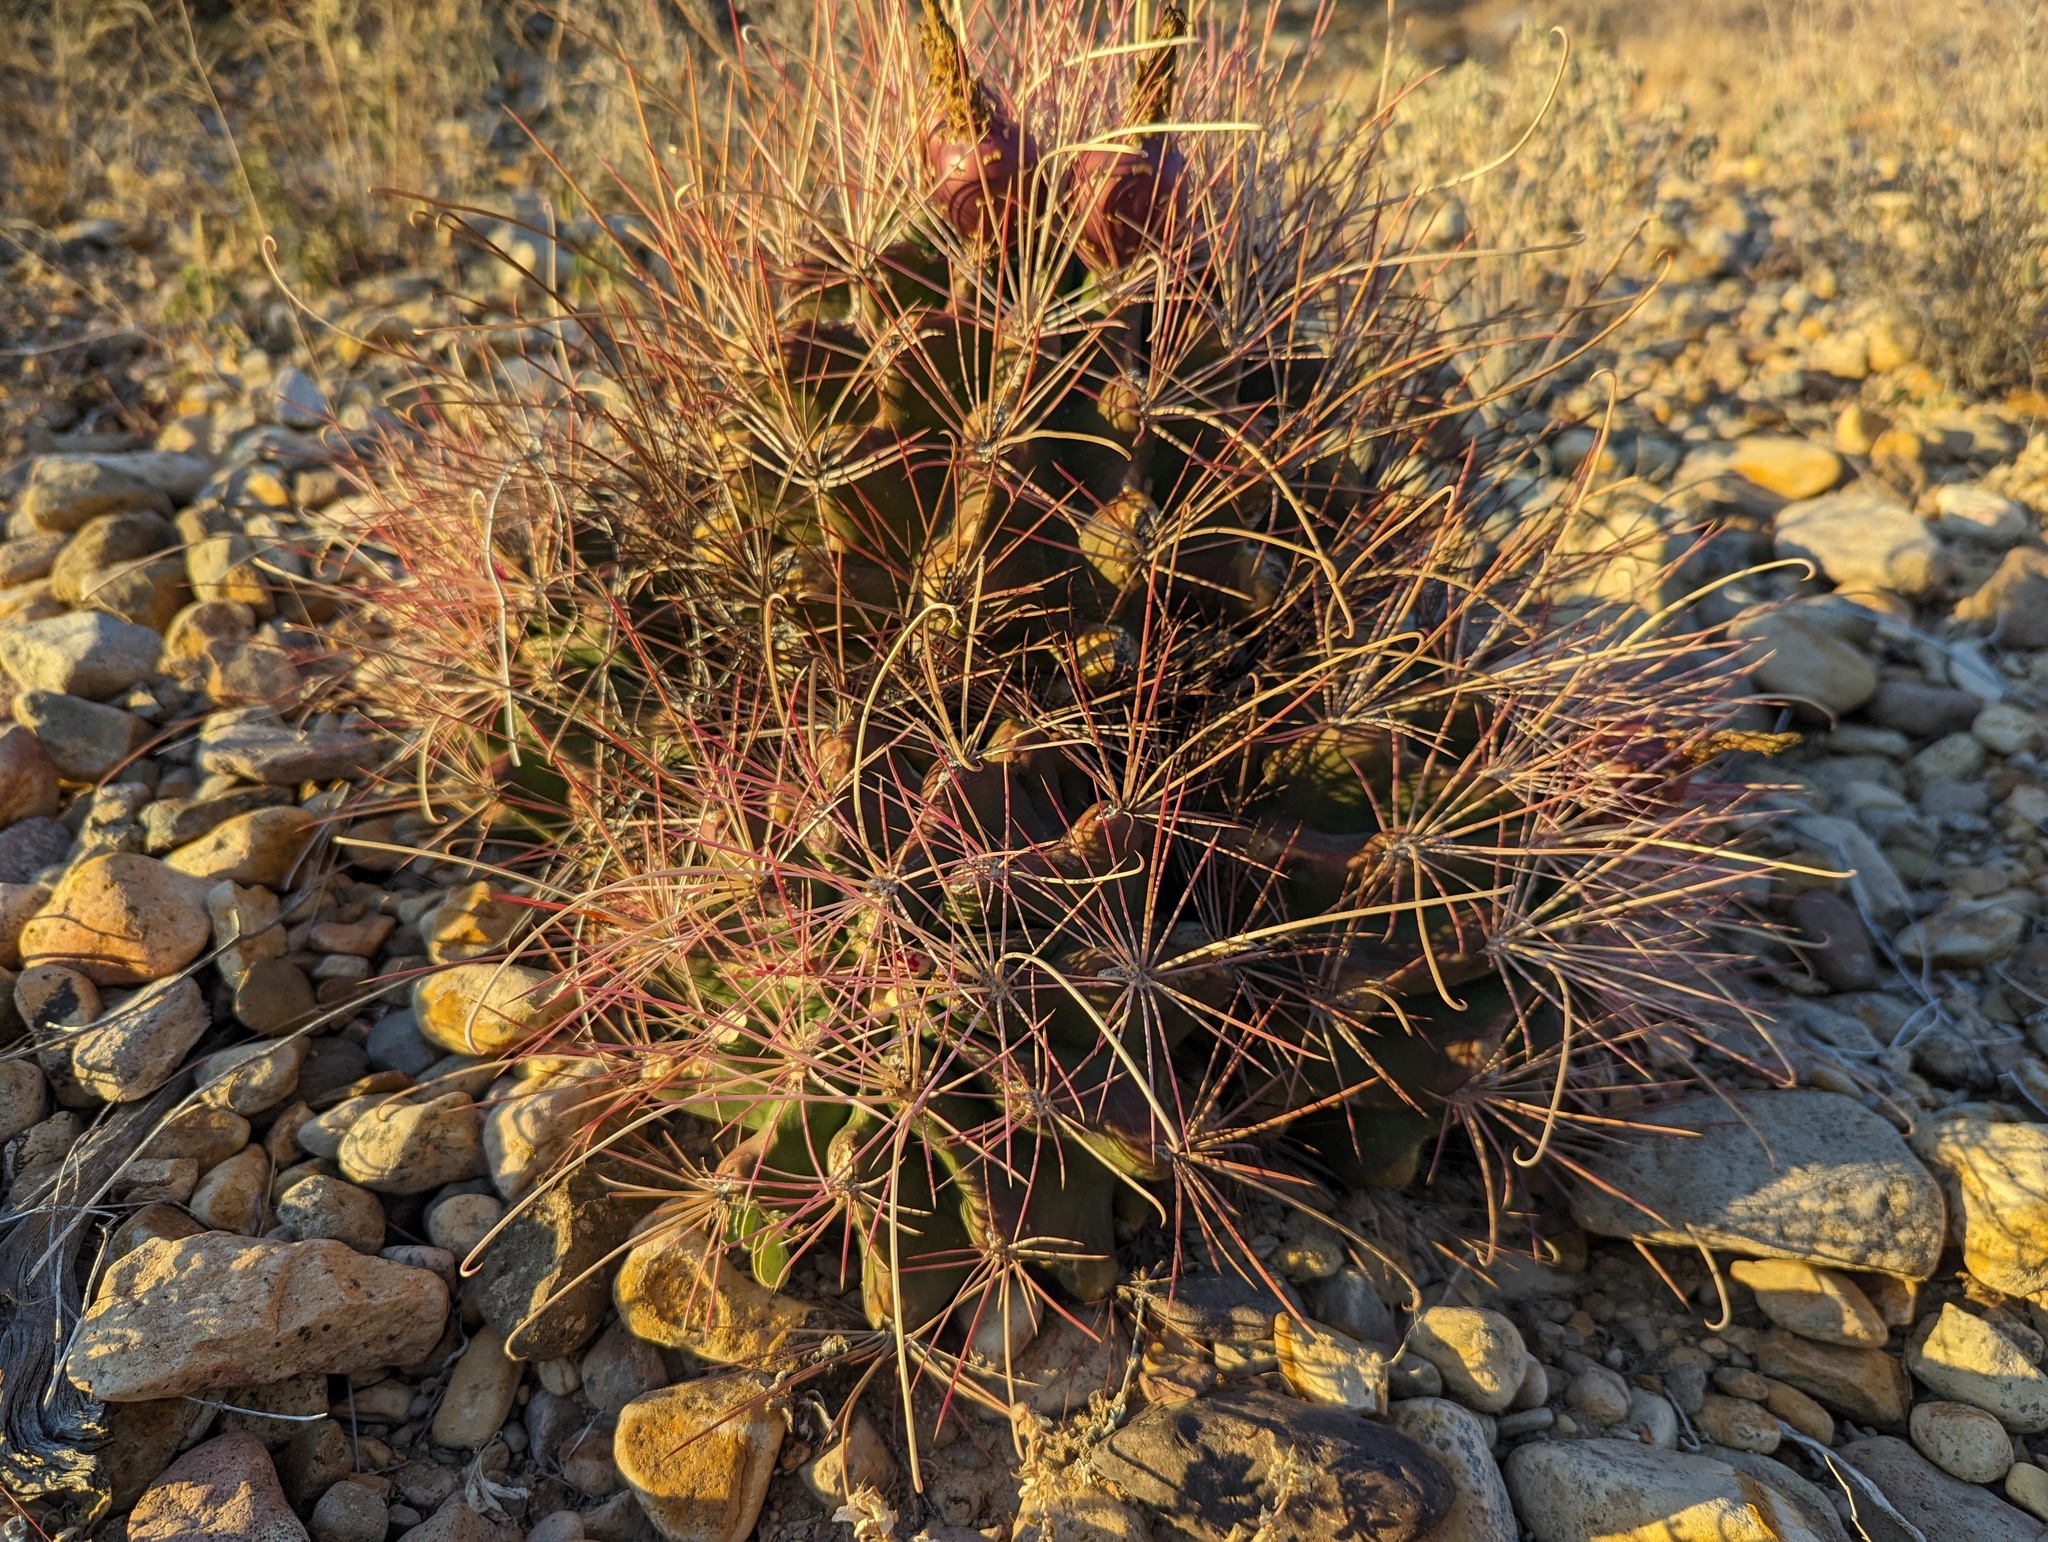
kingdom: Plantae
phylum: Tracheophyta
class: Magnoliopsida
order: Caryophyllales
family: Cactaceae
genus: Bisnaga
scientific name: Bisnaga hamatacantha
